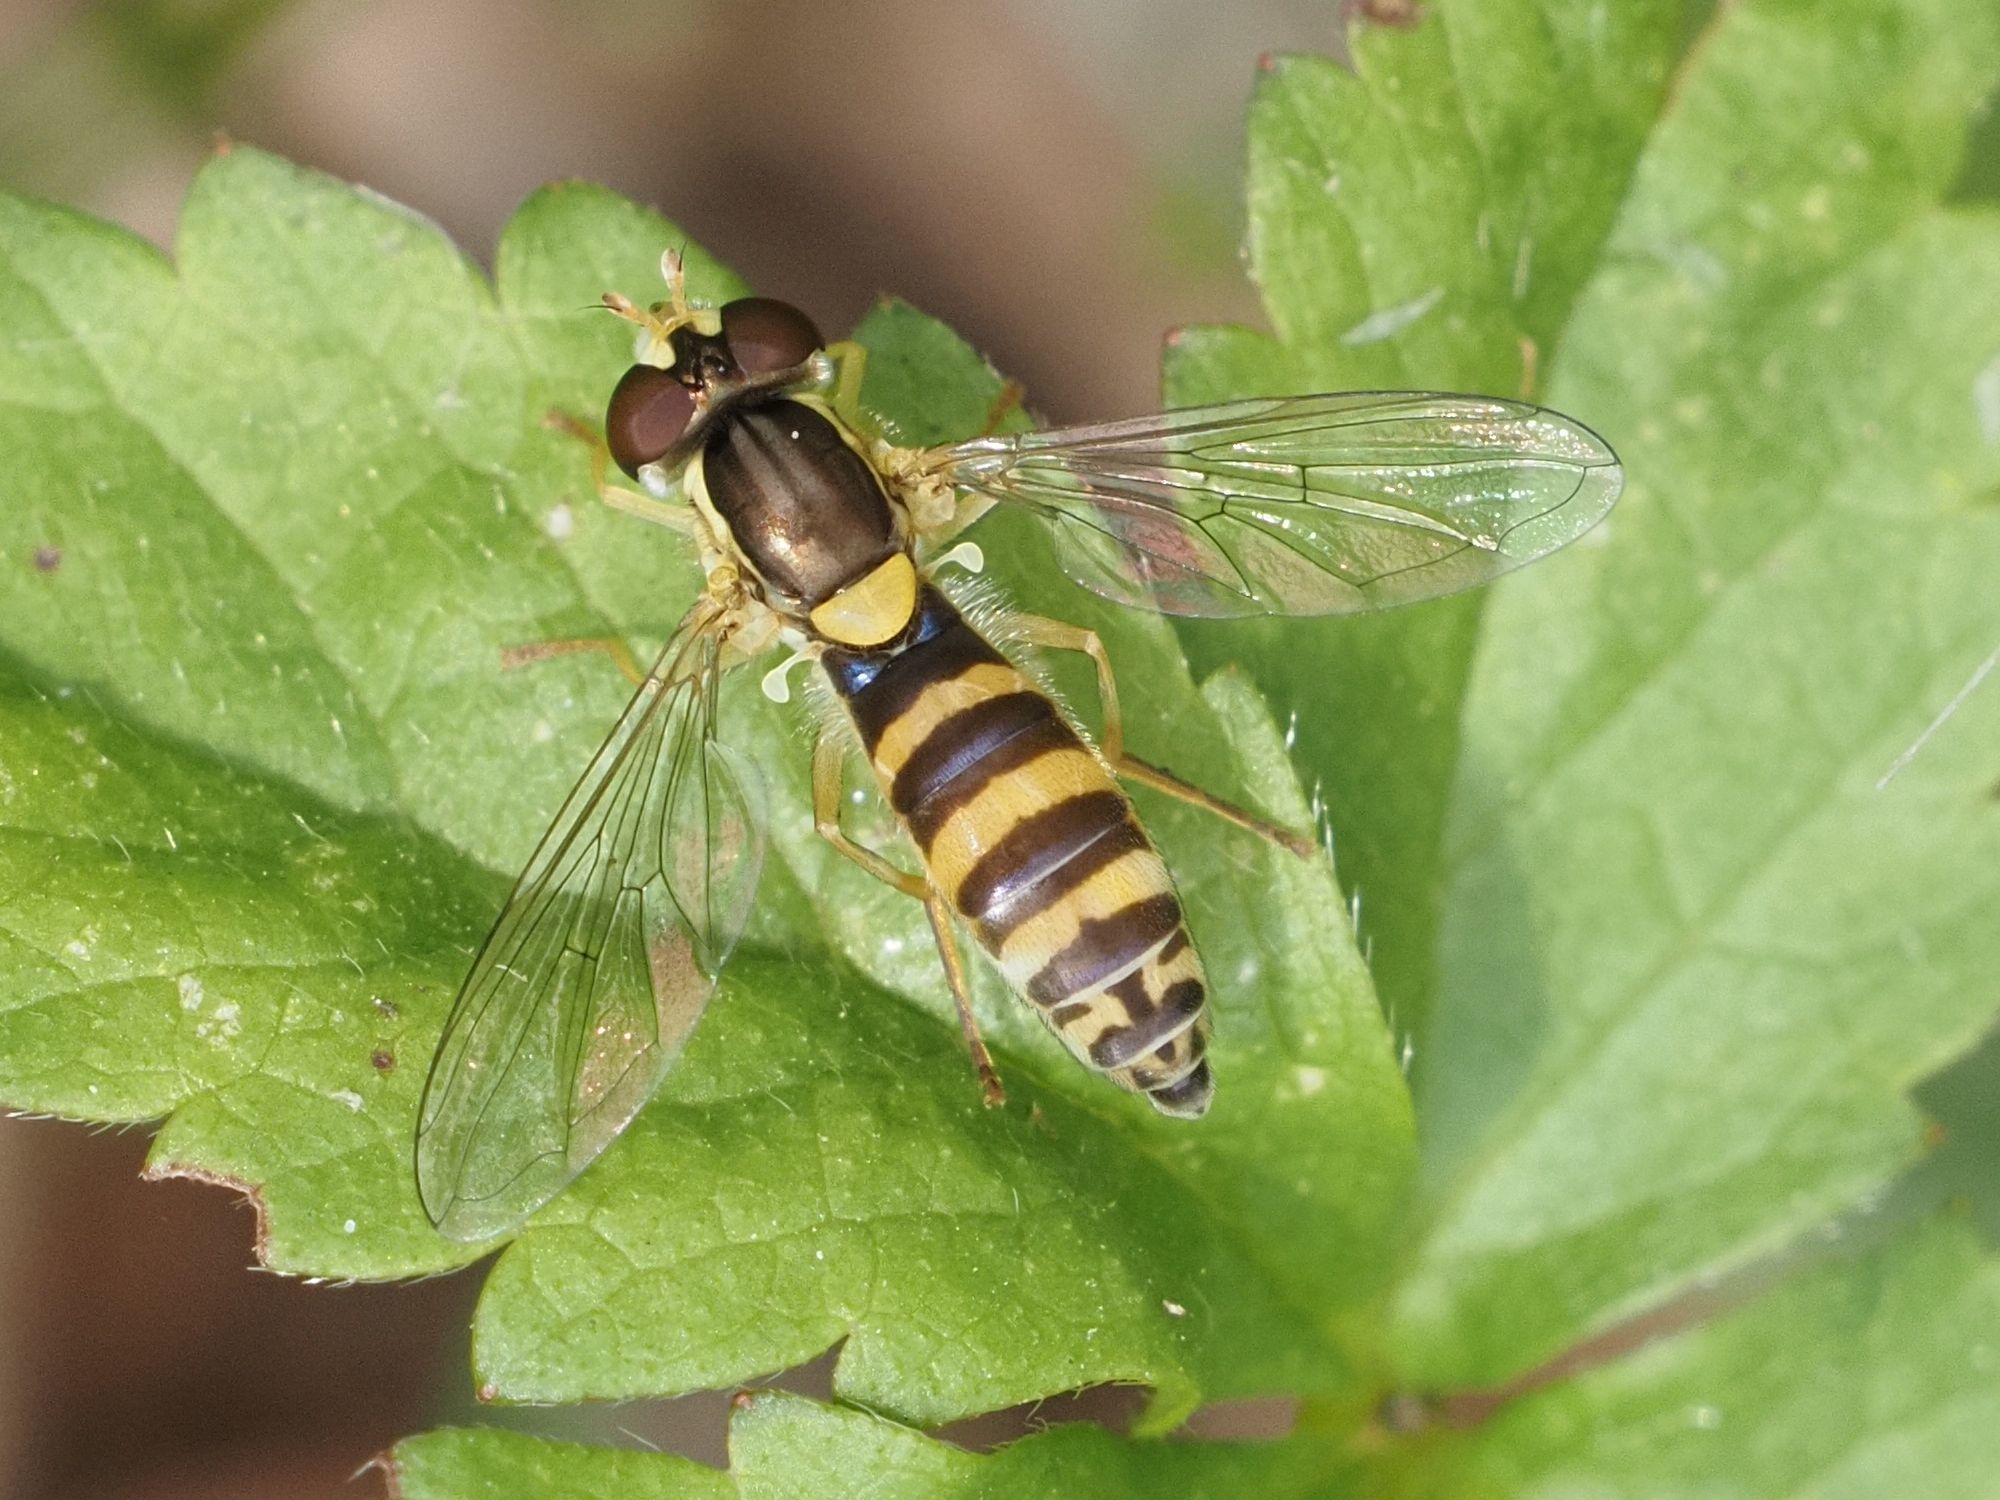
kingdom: Animalia
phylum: Arthropoda
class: Insecta
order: Diptera
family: Syrphidae
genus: Sphaerophoria
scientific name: Sphaerophoria
